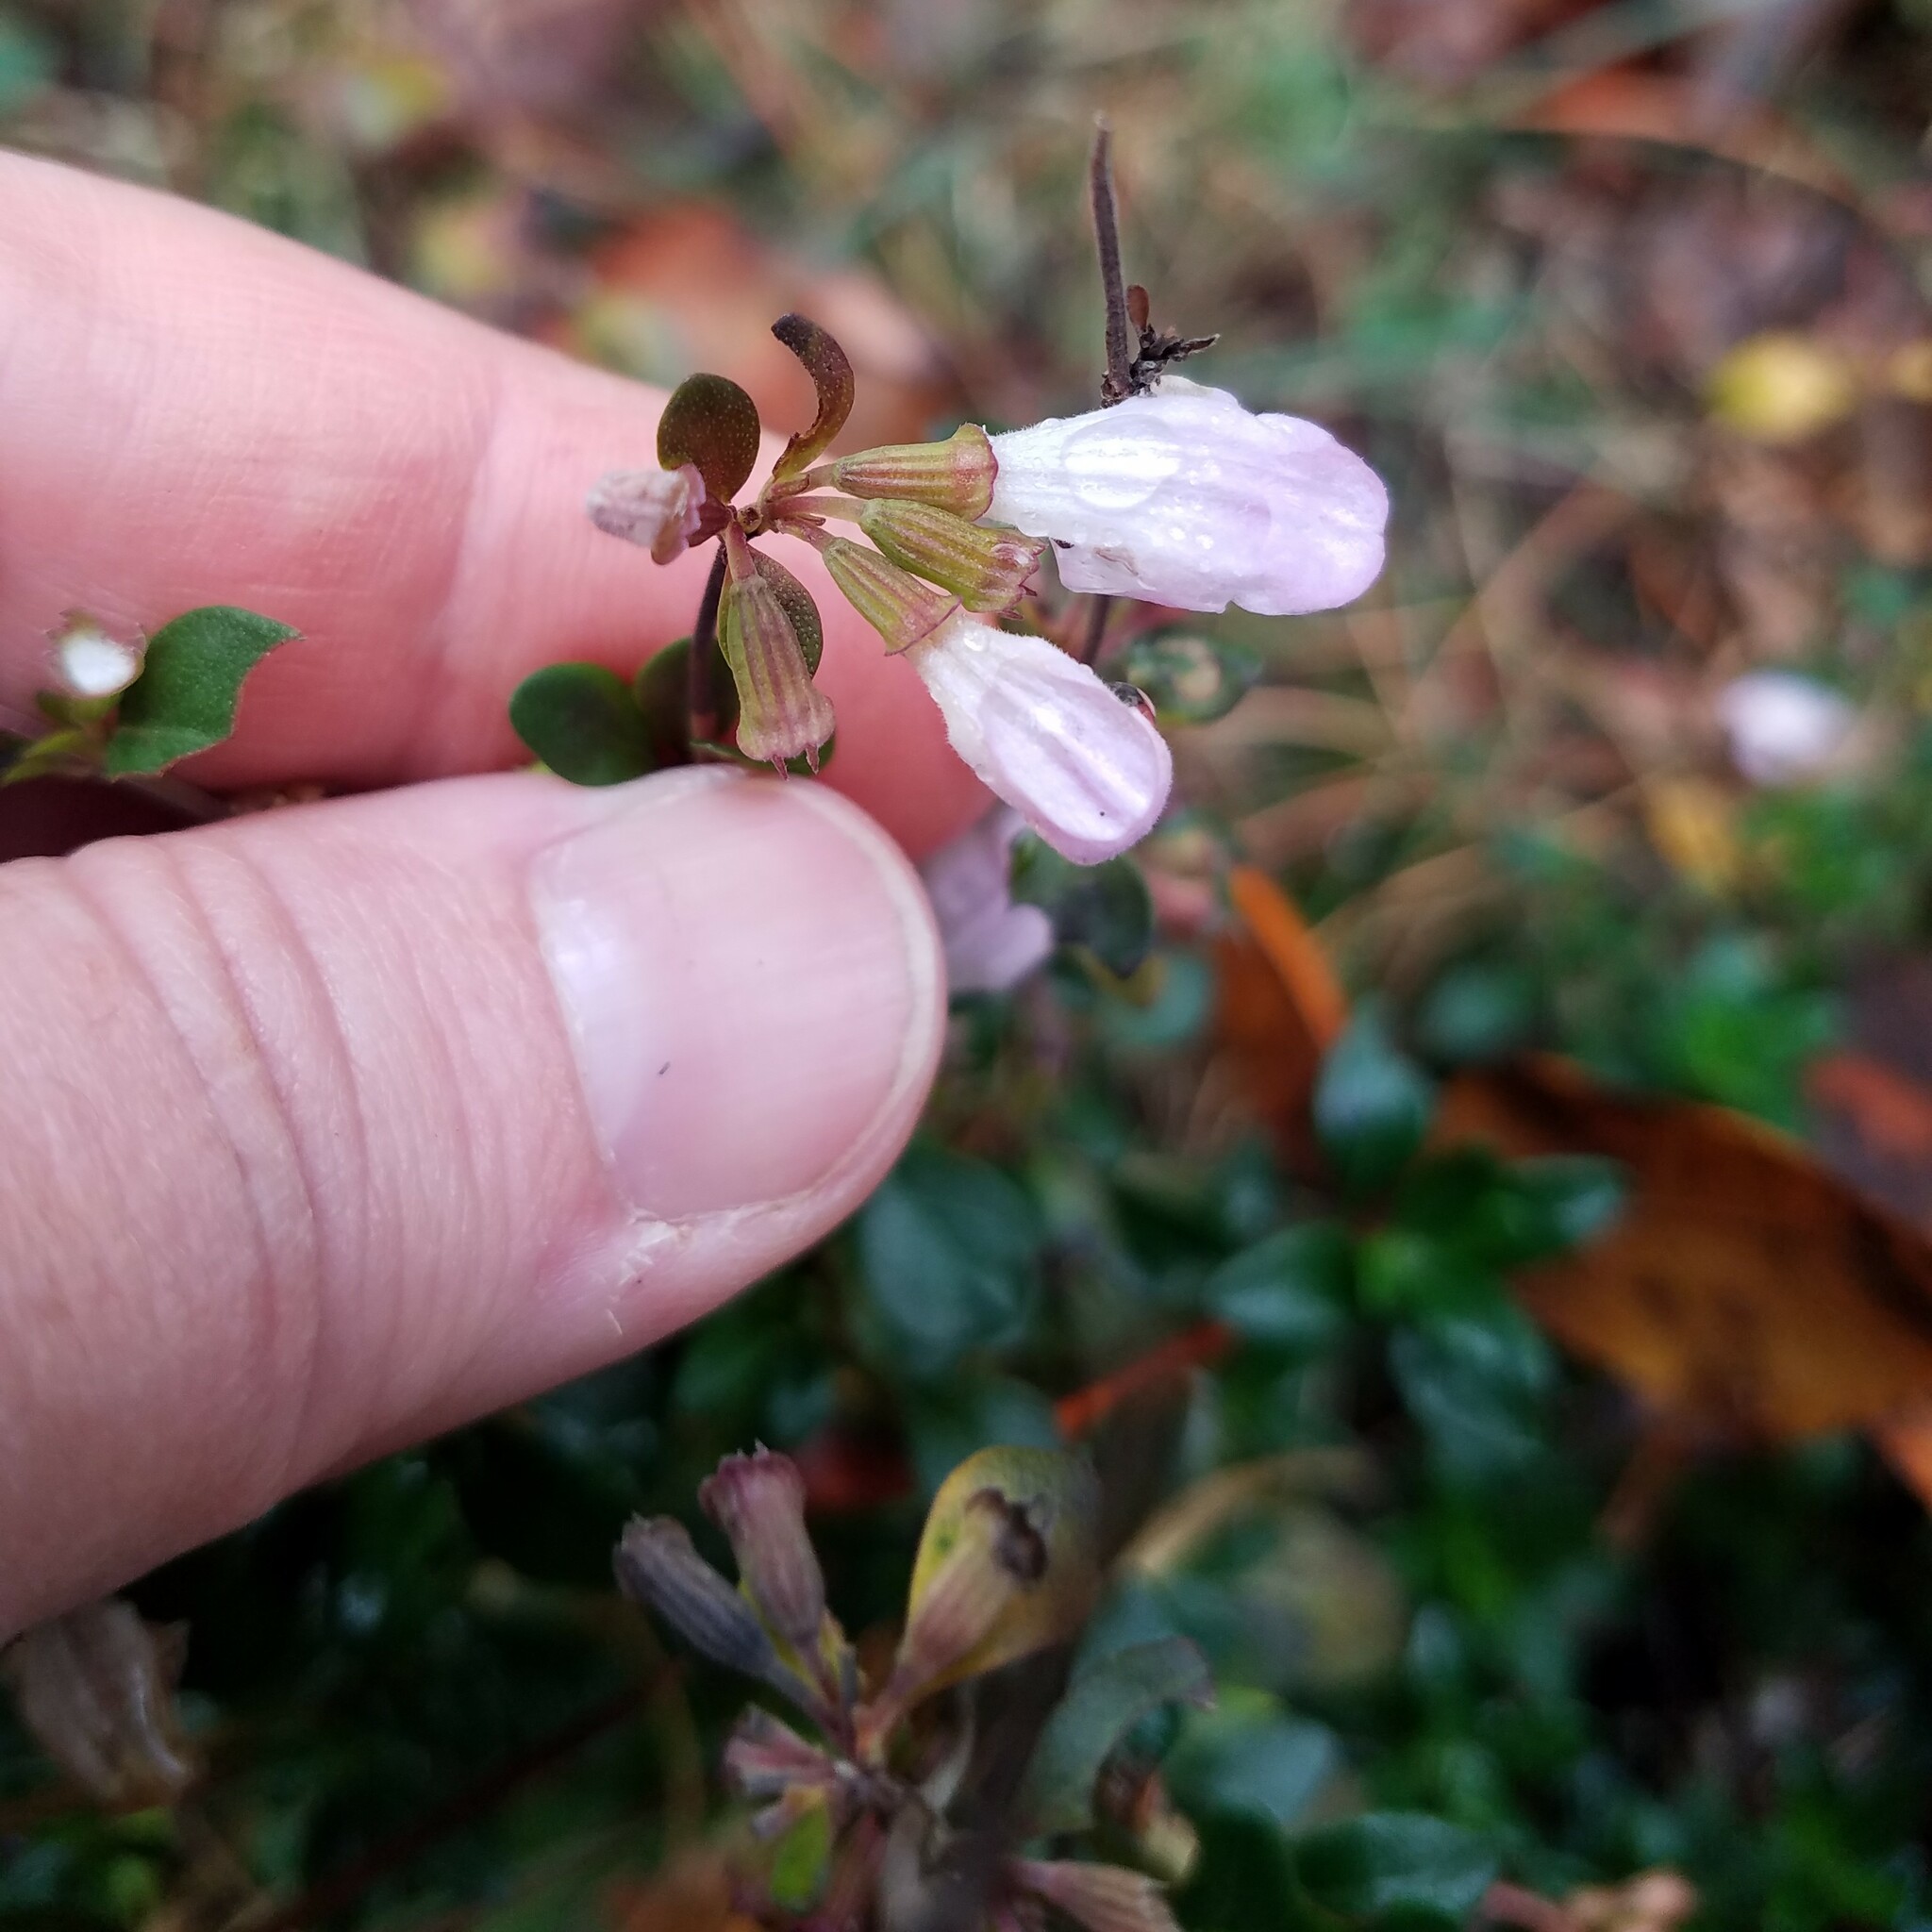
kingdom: Plantae
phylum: Tracheophyta
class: Magnoliopsida
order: Lamiales
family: Lamiaceae
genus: Clinopodium
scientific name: Clinopodium carolinianum
